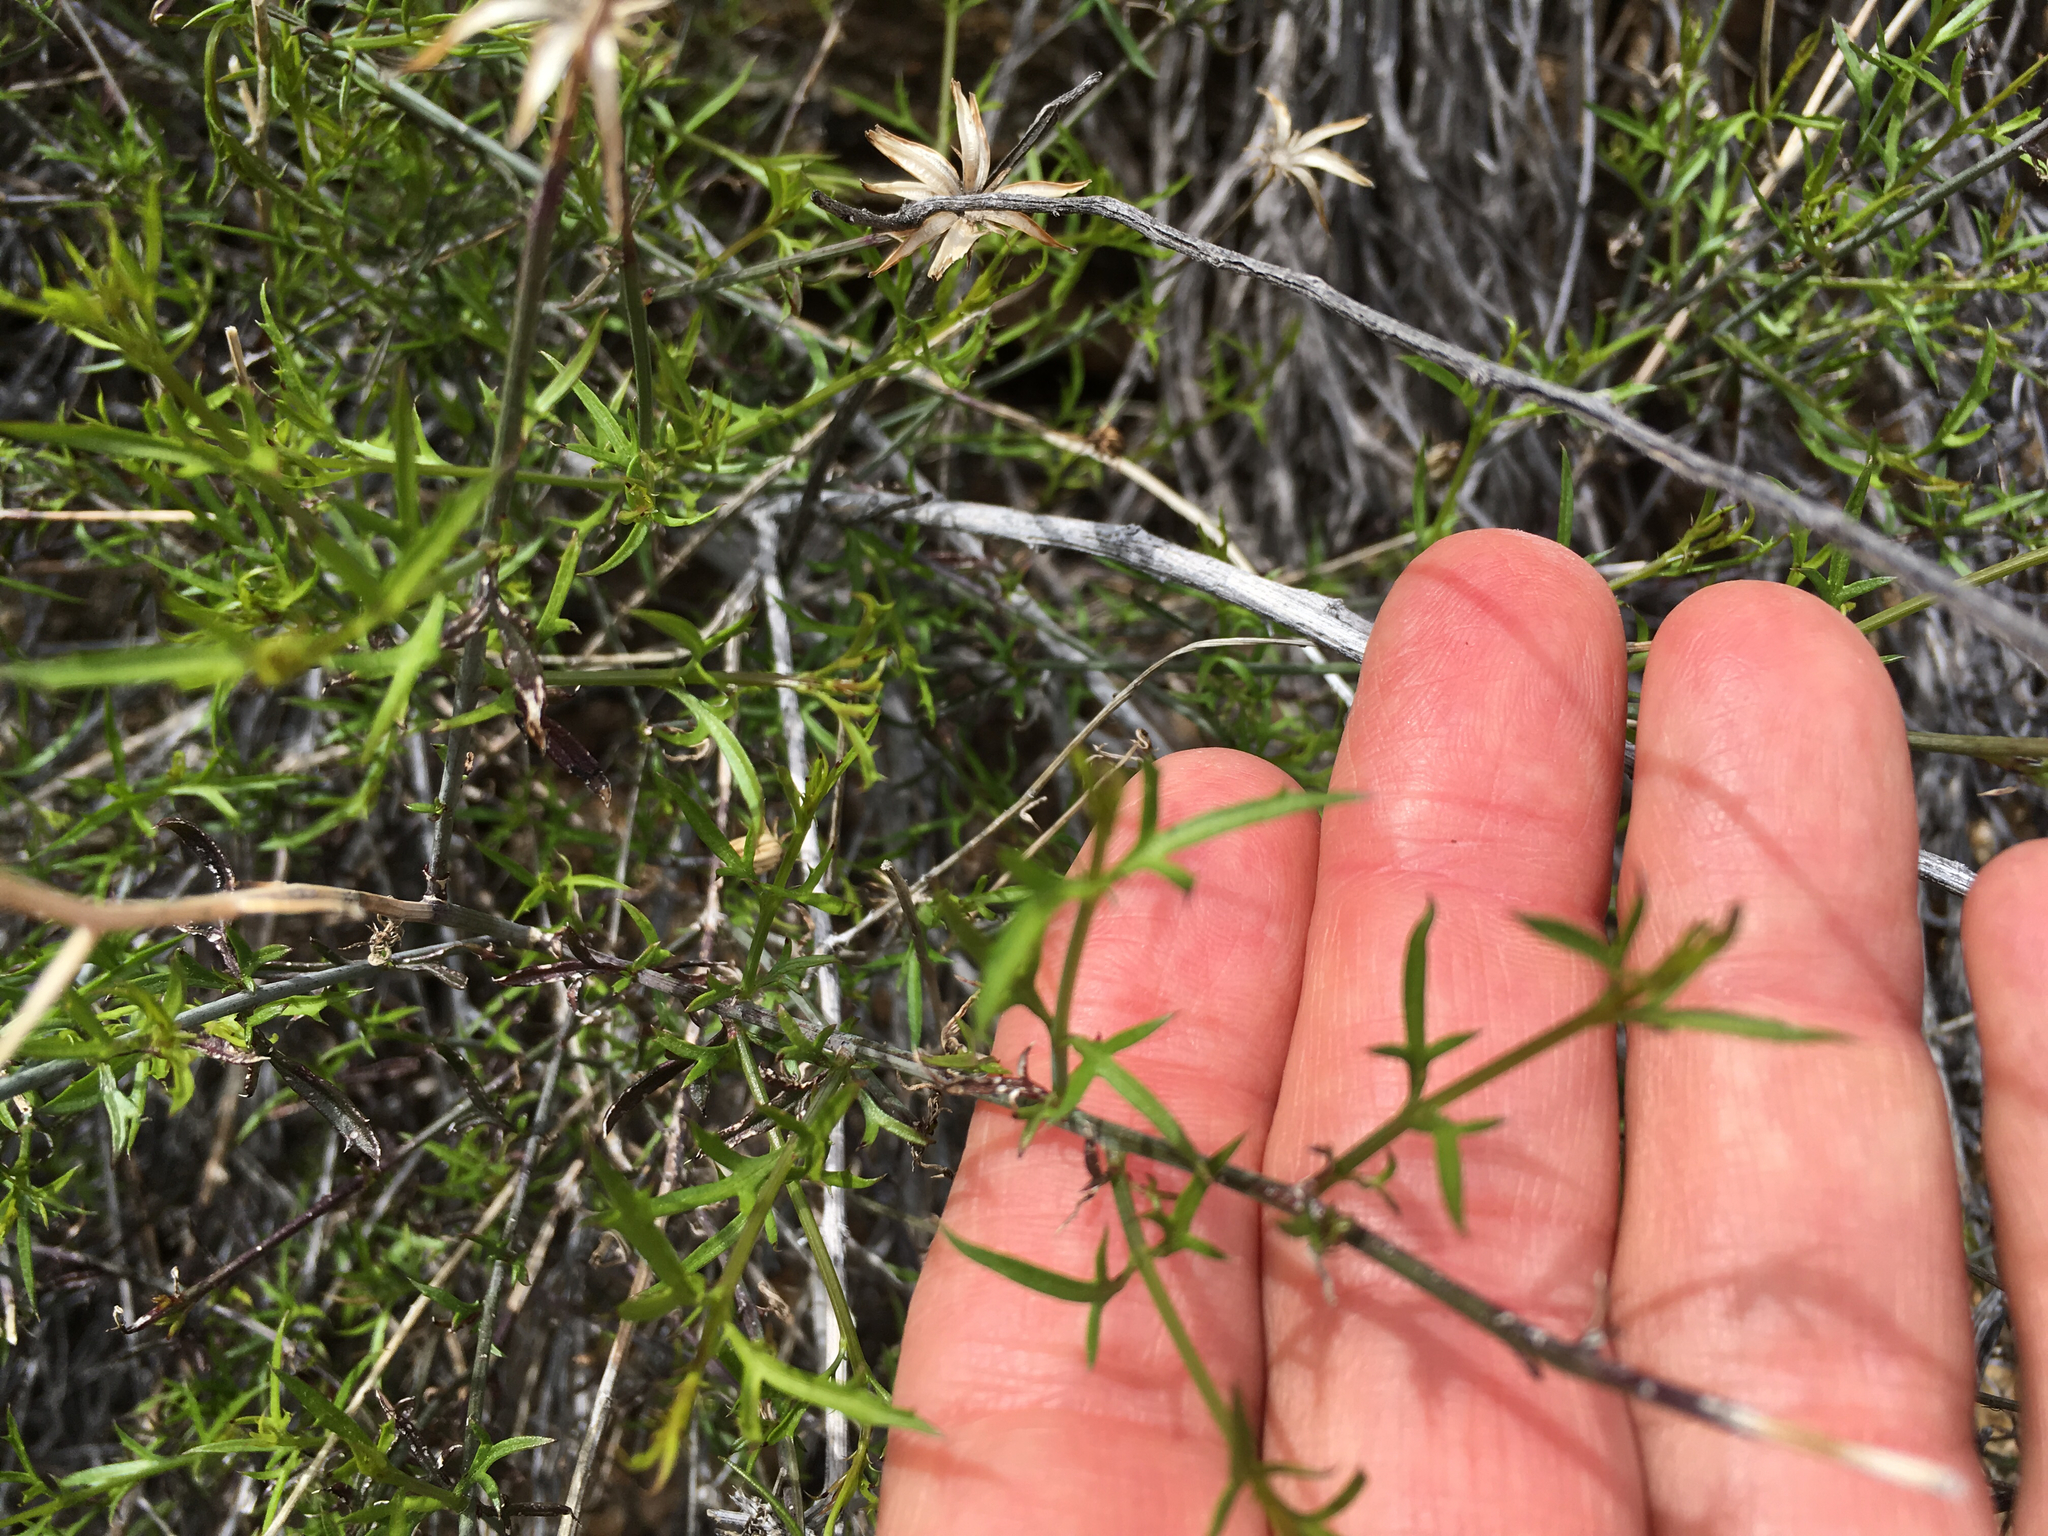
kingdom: Plantae
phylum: Tracheophyta
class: Magnoliopsida
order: Asterales
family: Asteraceae
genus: Adenophyllum
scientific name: Adenophyllum porophylloides
